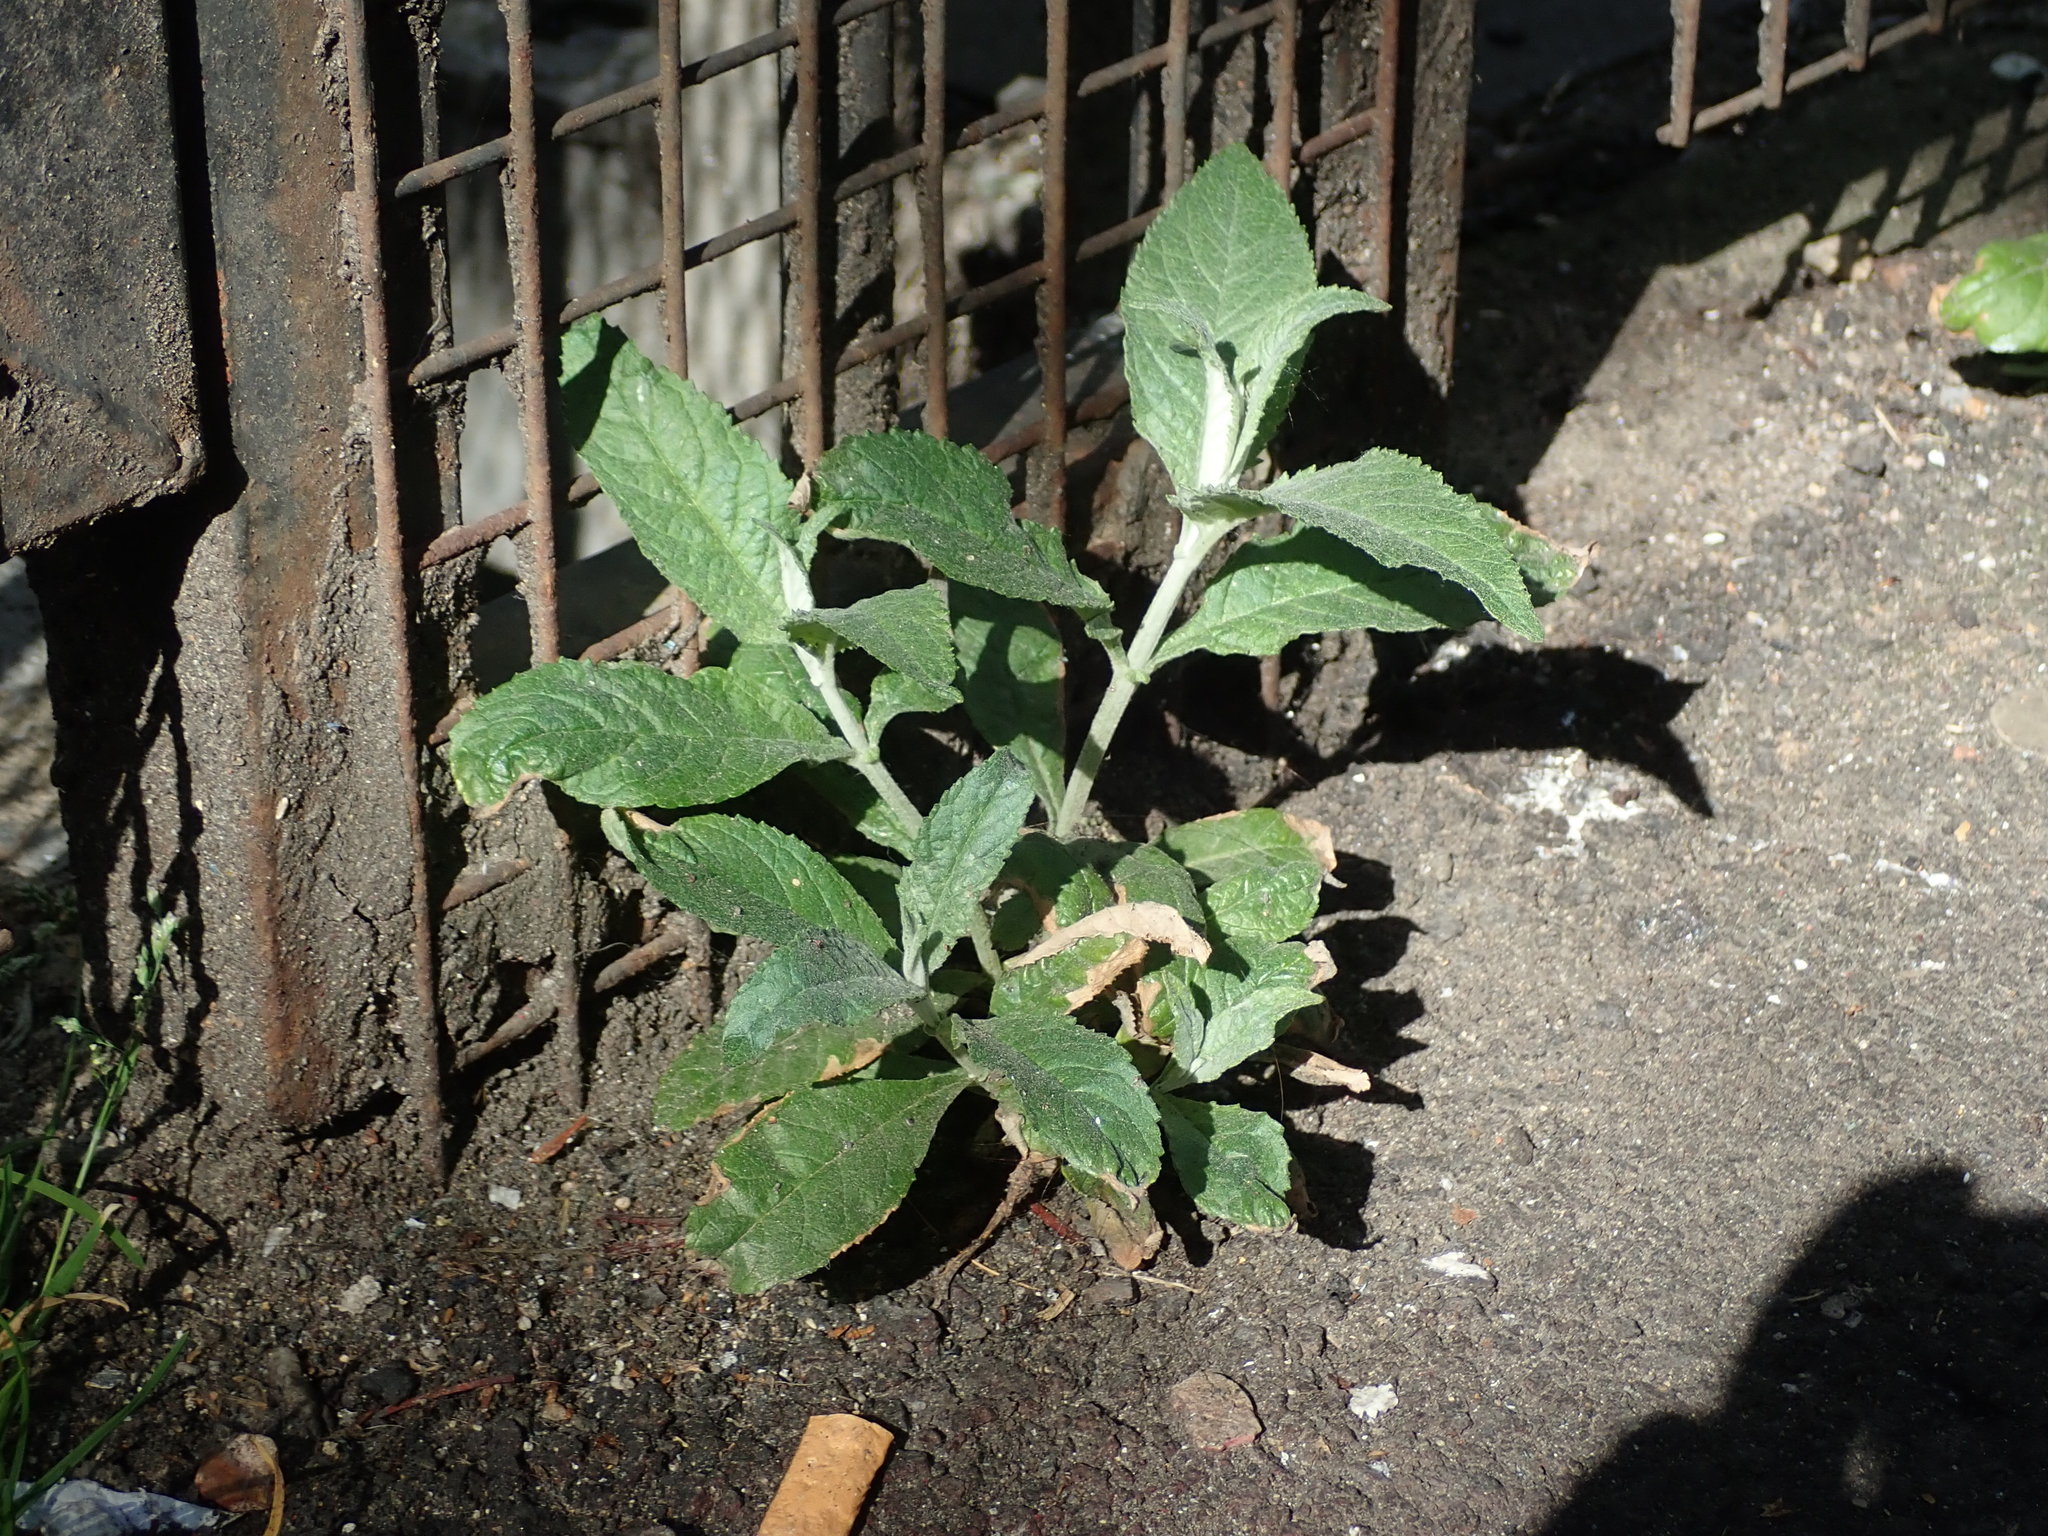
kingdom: Plantae
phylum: Tracheophyta
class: Magnoliopsida
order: Lamiales
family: Scrophulariaceae
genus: Buddleja
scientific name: Buddleja davidii
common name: Butterfly-bush
